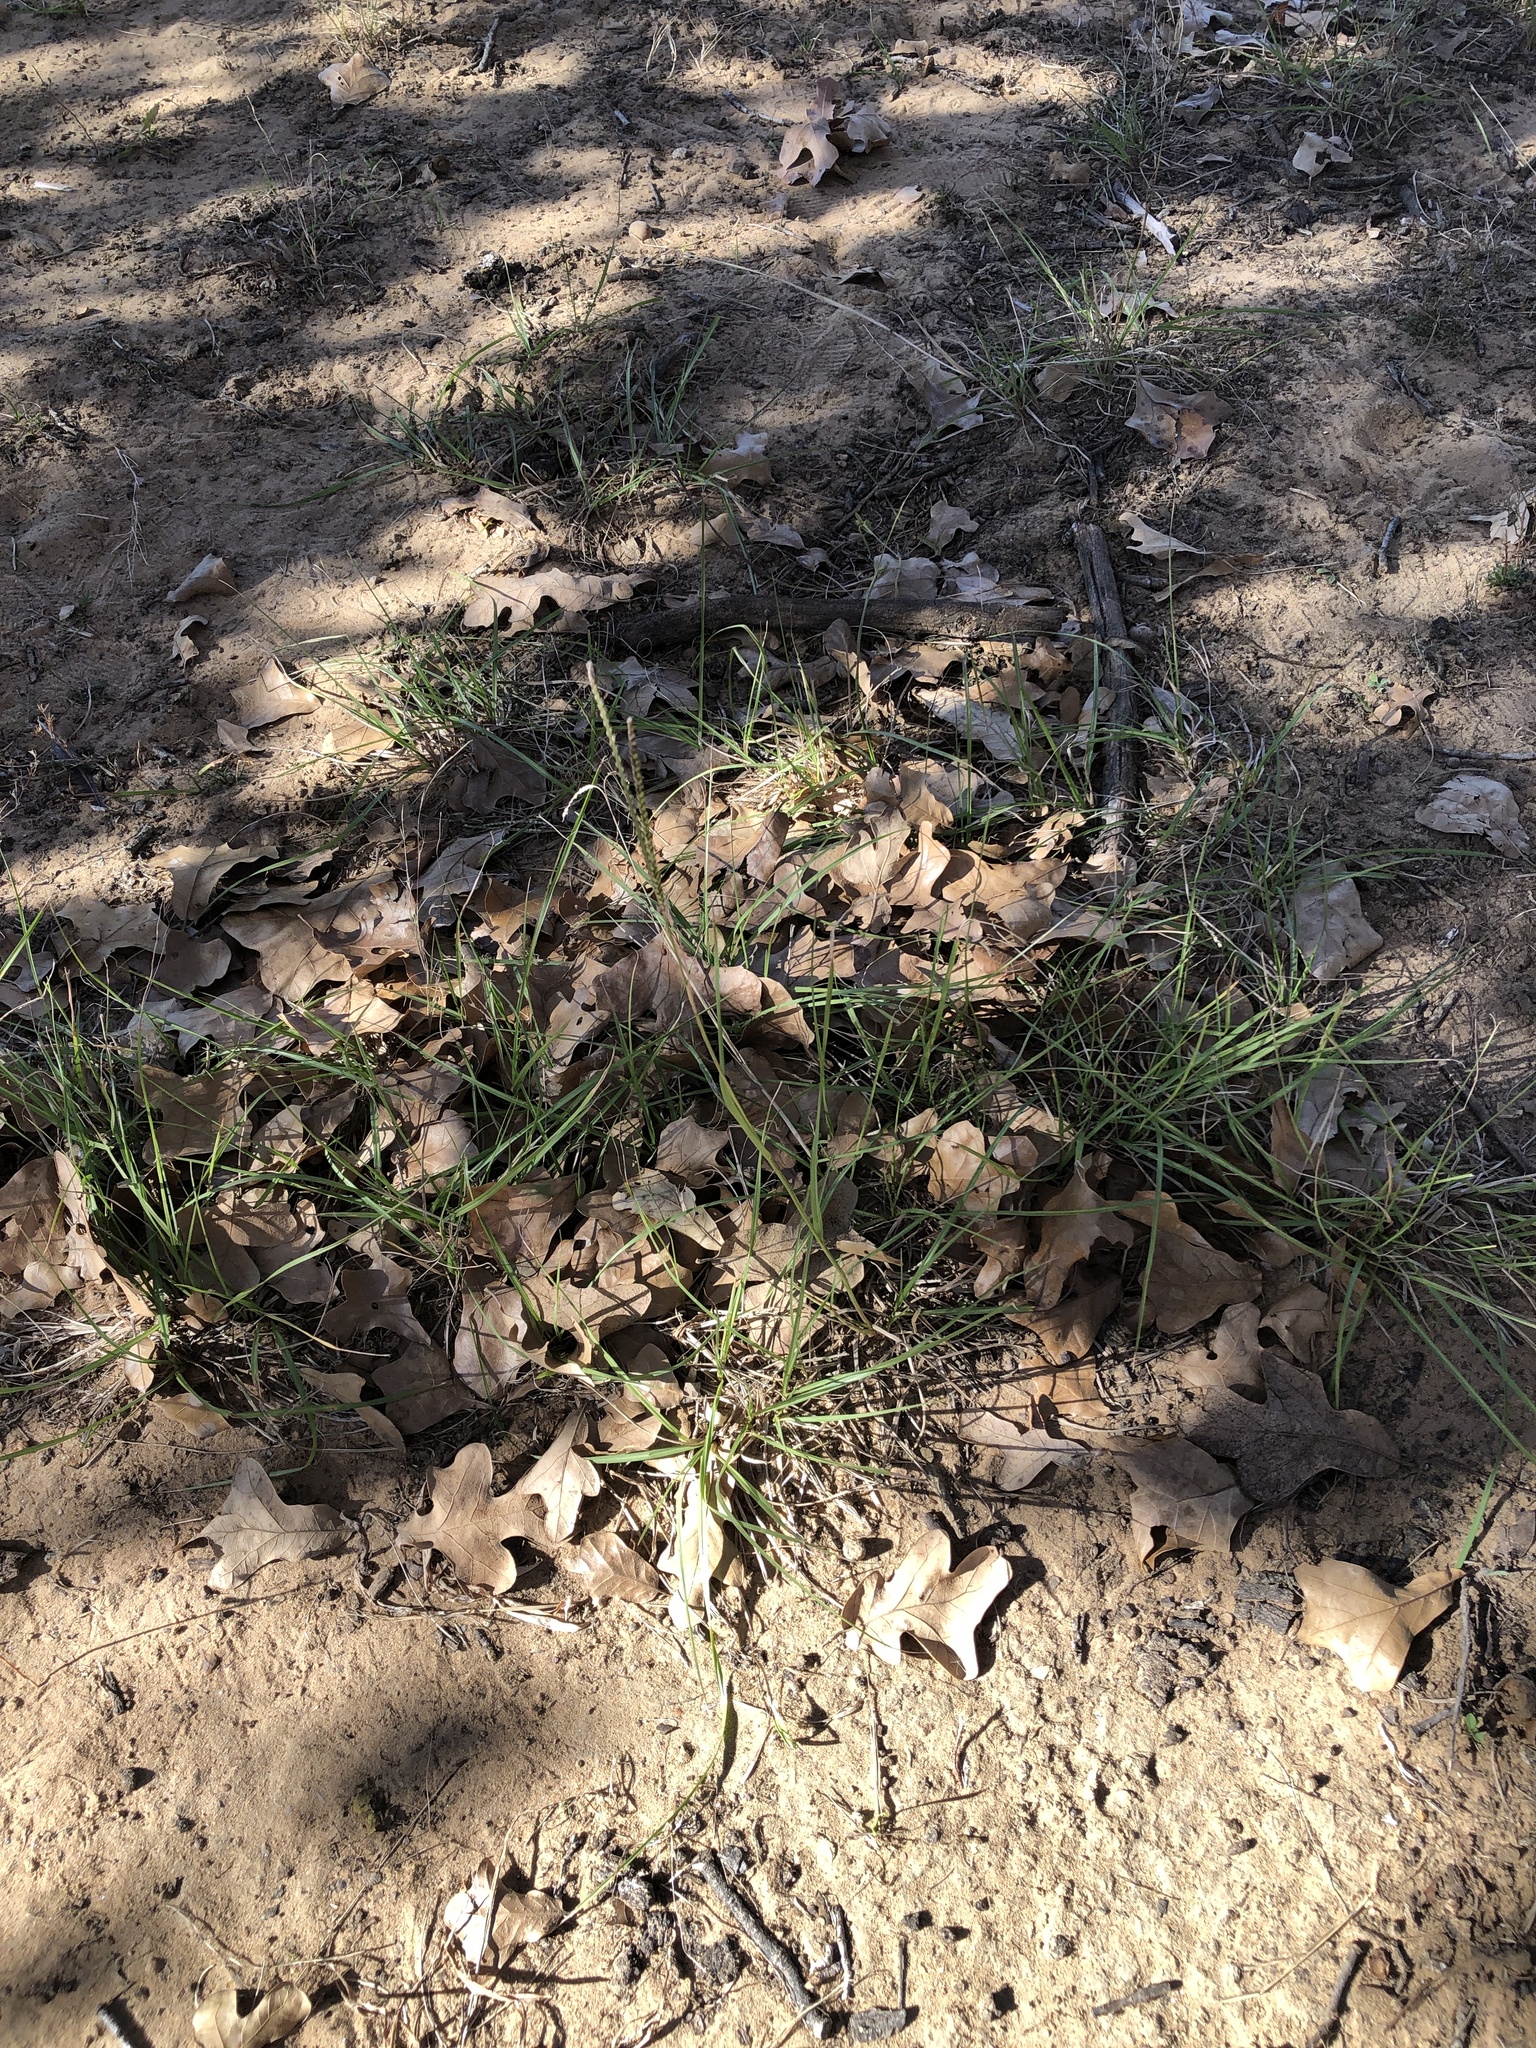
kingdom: Plantae
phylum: Tracheophyta
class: Liliopsida
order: Poales
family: Poaceae
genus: Paspalum
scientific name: Paspalum notatum
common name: Bahiagrass
